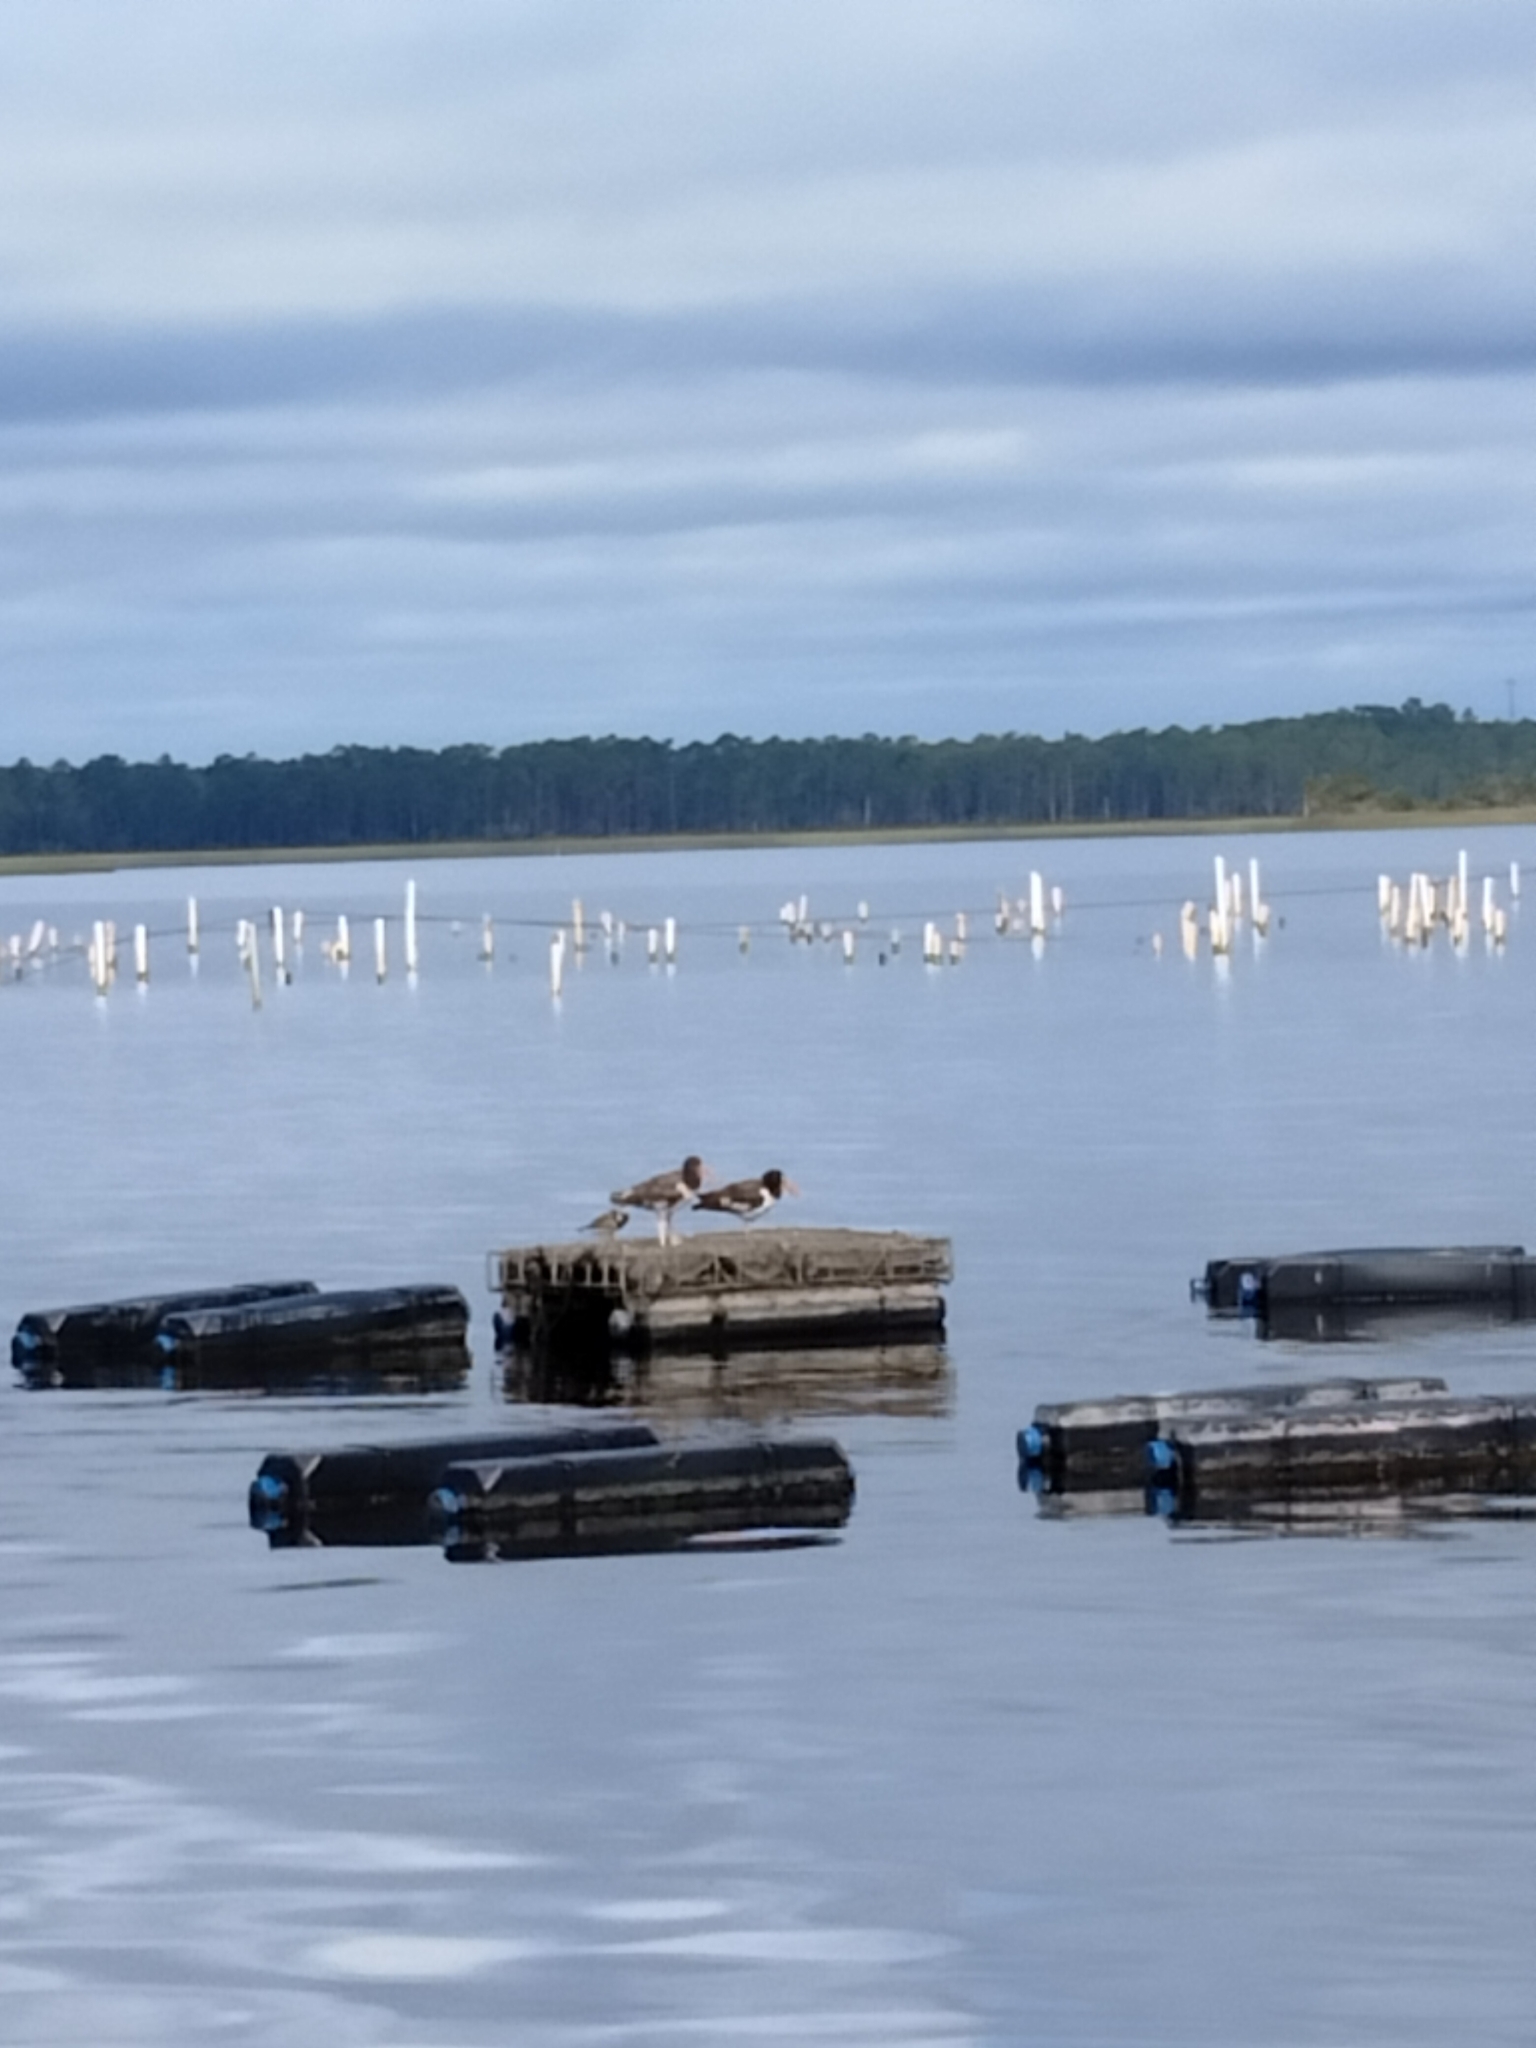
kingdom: Animalia
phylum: Chordata
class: Aves
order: Charadriiformes
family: Haematopodidae
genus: Haematopus
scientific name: Haematopus palliatus
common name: American oystercatcher
